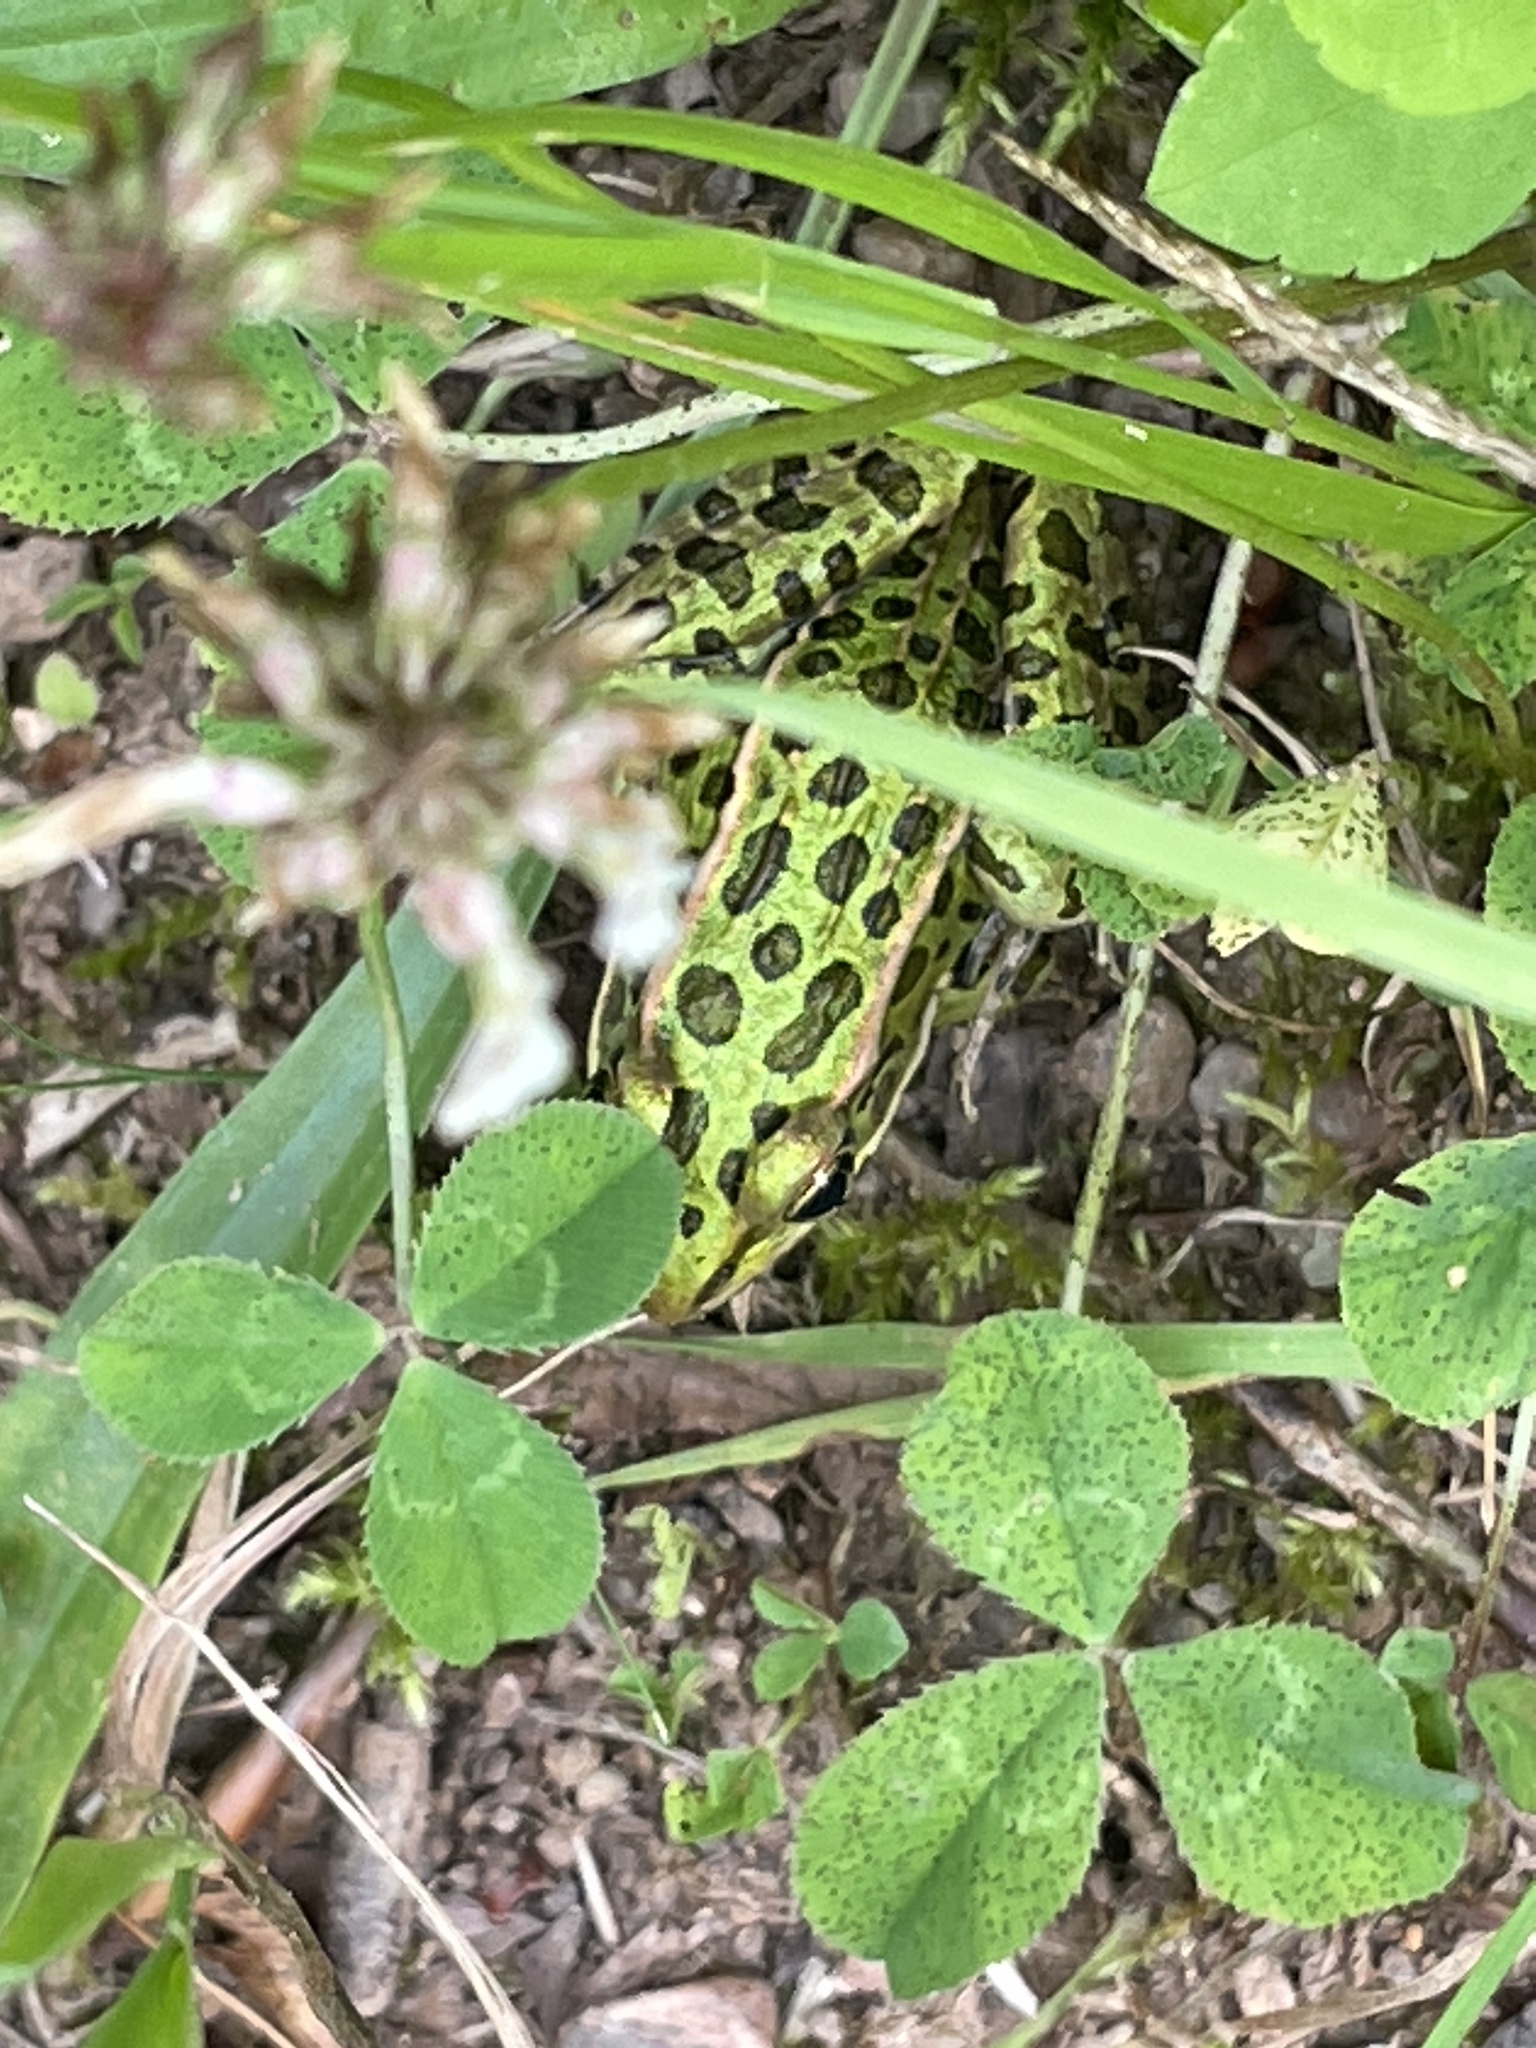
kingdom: Animalia
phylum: Chordata
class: Amphibia
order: Anura
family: Ranidae
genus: Lithobates
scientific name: Lithobates pipiens
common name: Northern leopard frog
